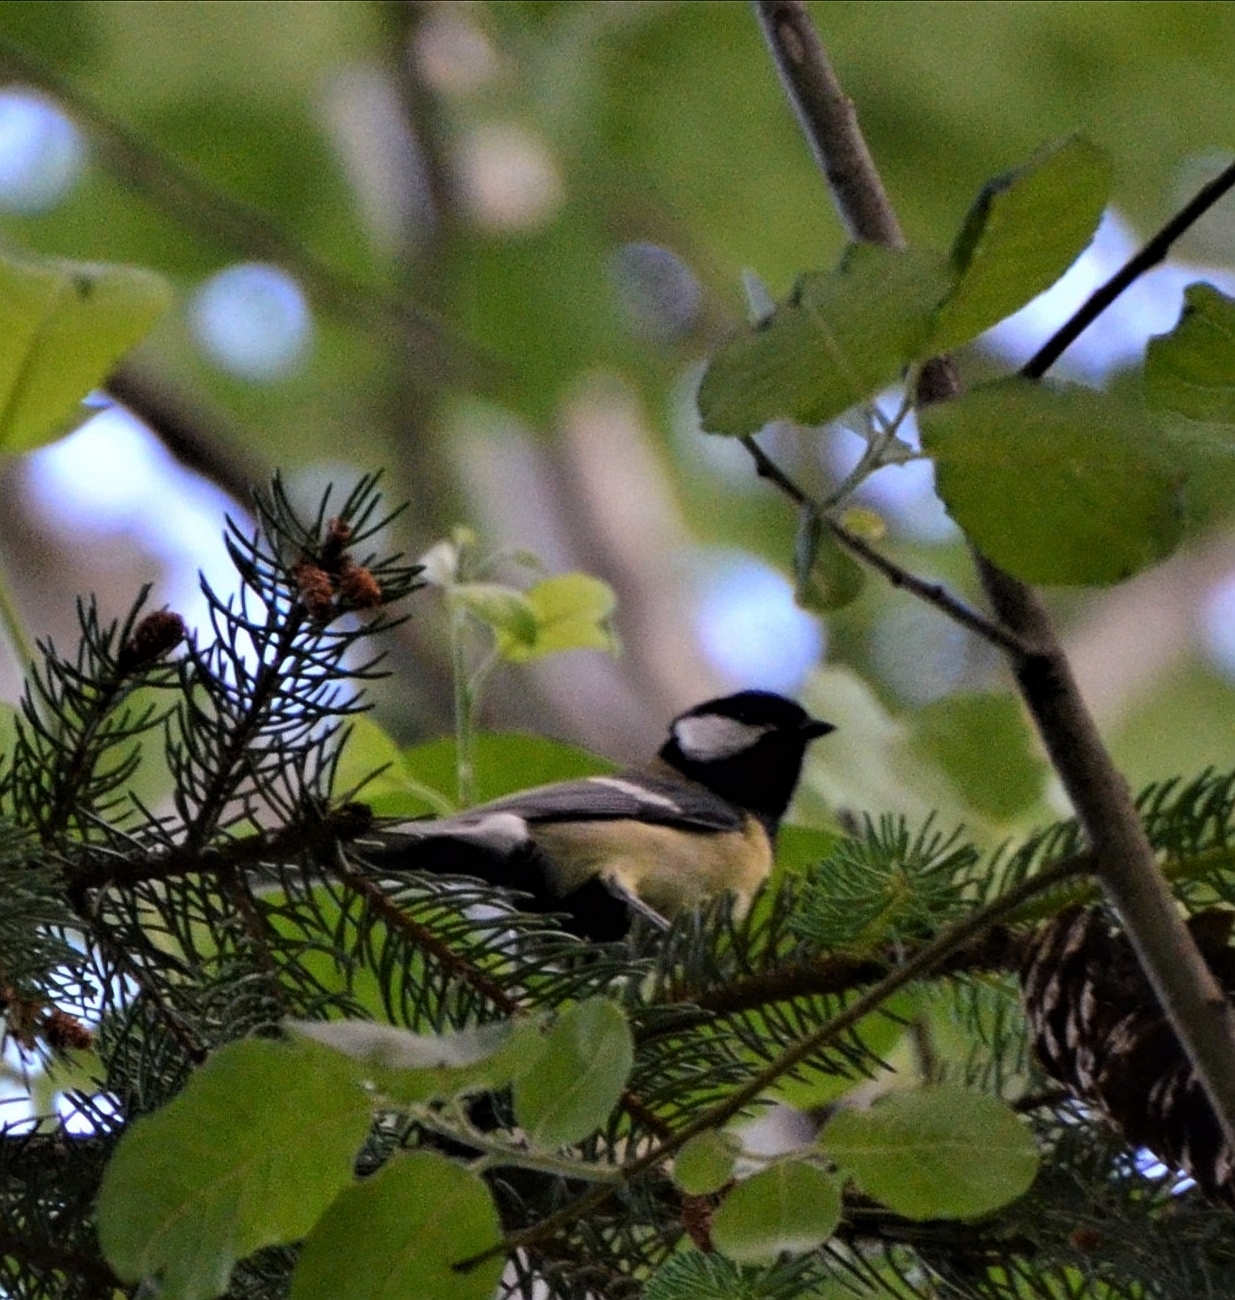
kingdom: Animalia
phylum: Chordata
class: Aves
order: Passeriformes
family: Paridae
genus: Parus
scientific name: Parus major
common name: Great tit
